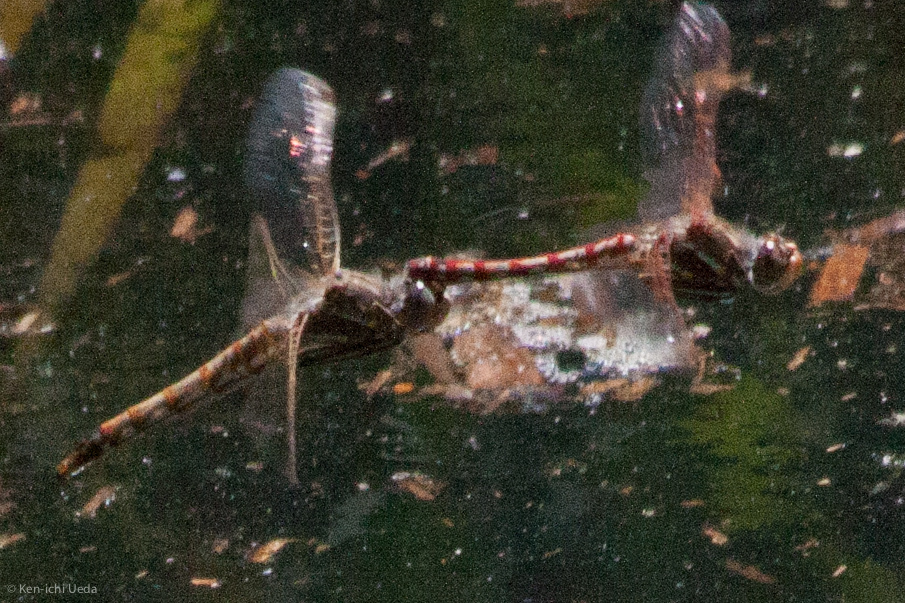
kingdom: Animalia
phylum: Arthropoda
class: Insecta
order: Odonata
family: Libellulidae
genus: Sympetrum
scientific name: Sympetrum corruptum
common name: Variegated meadowhawk
